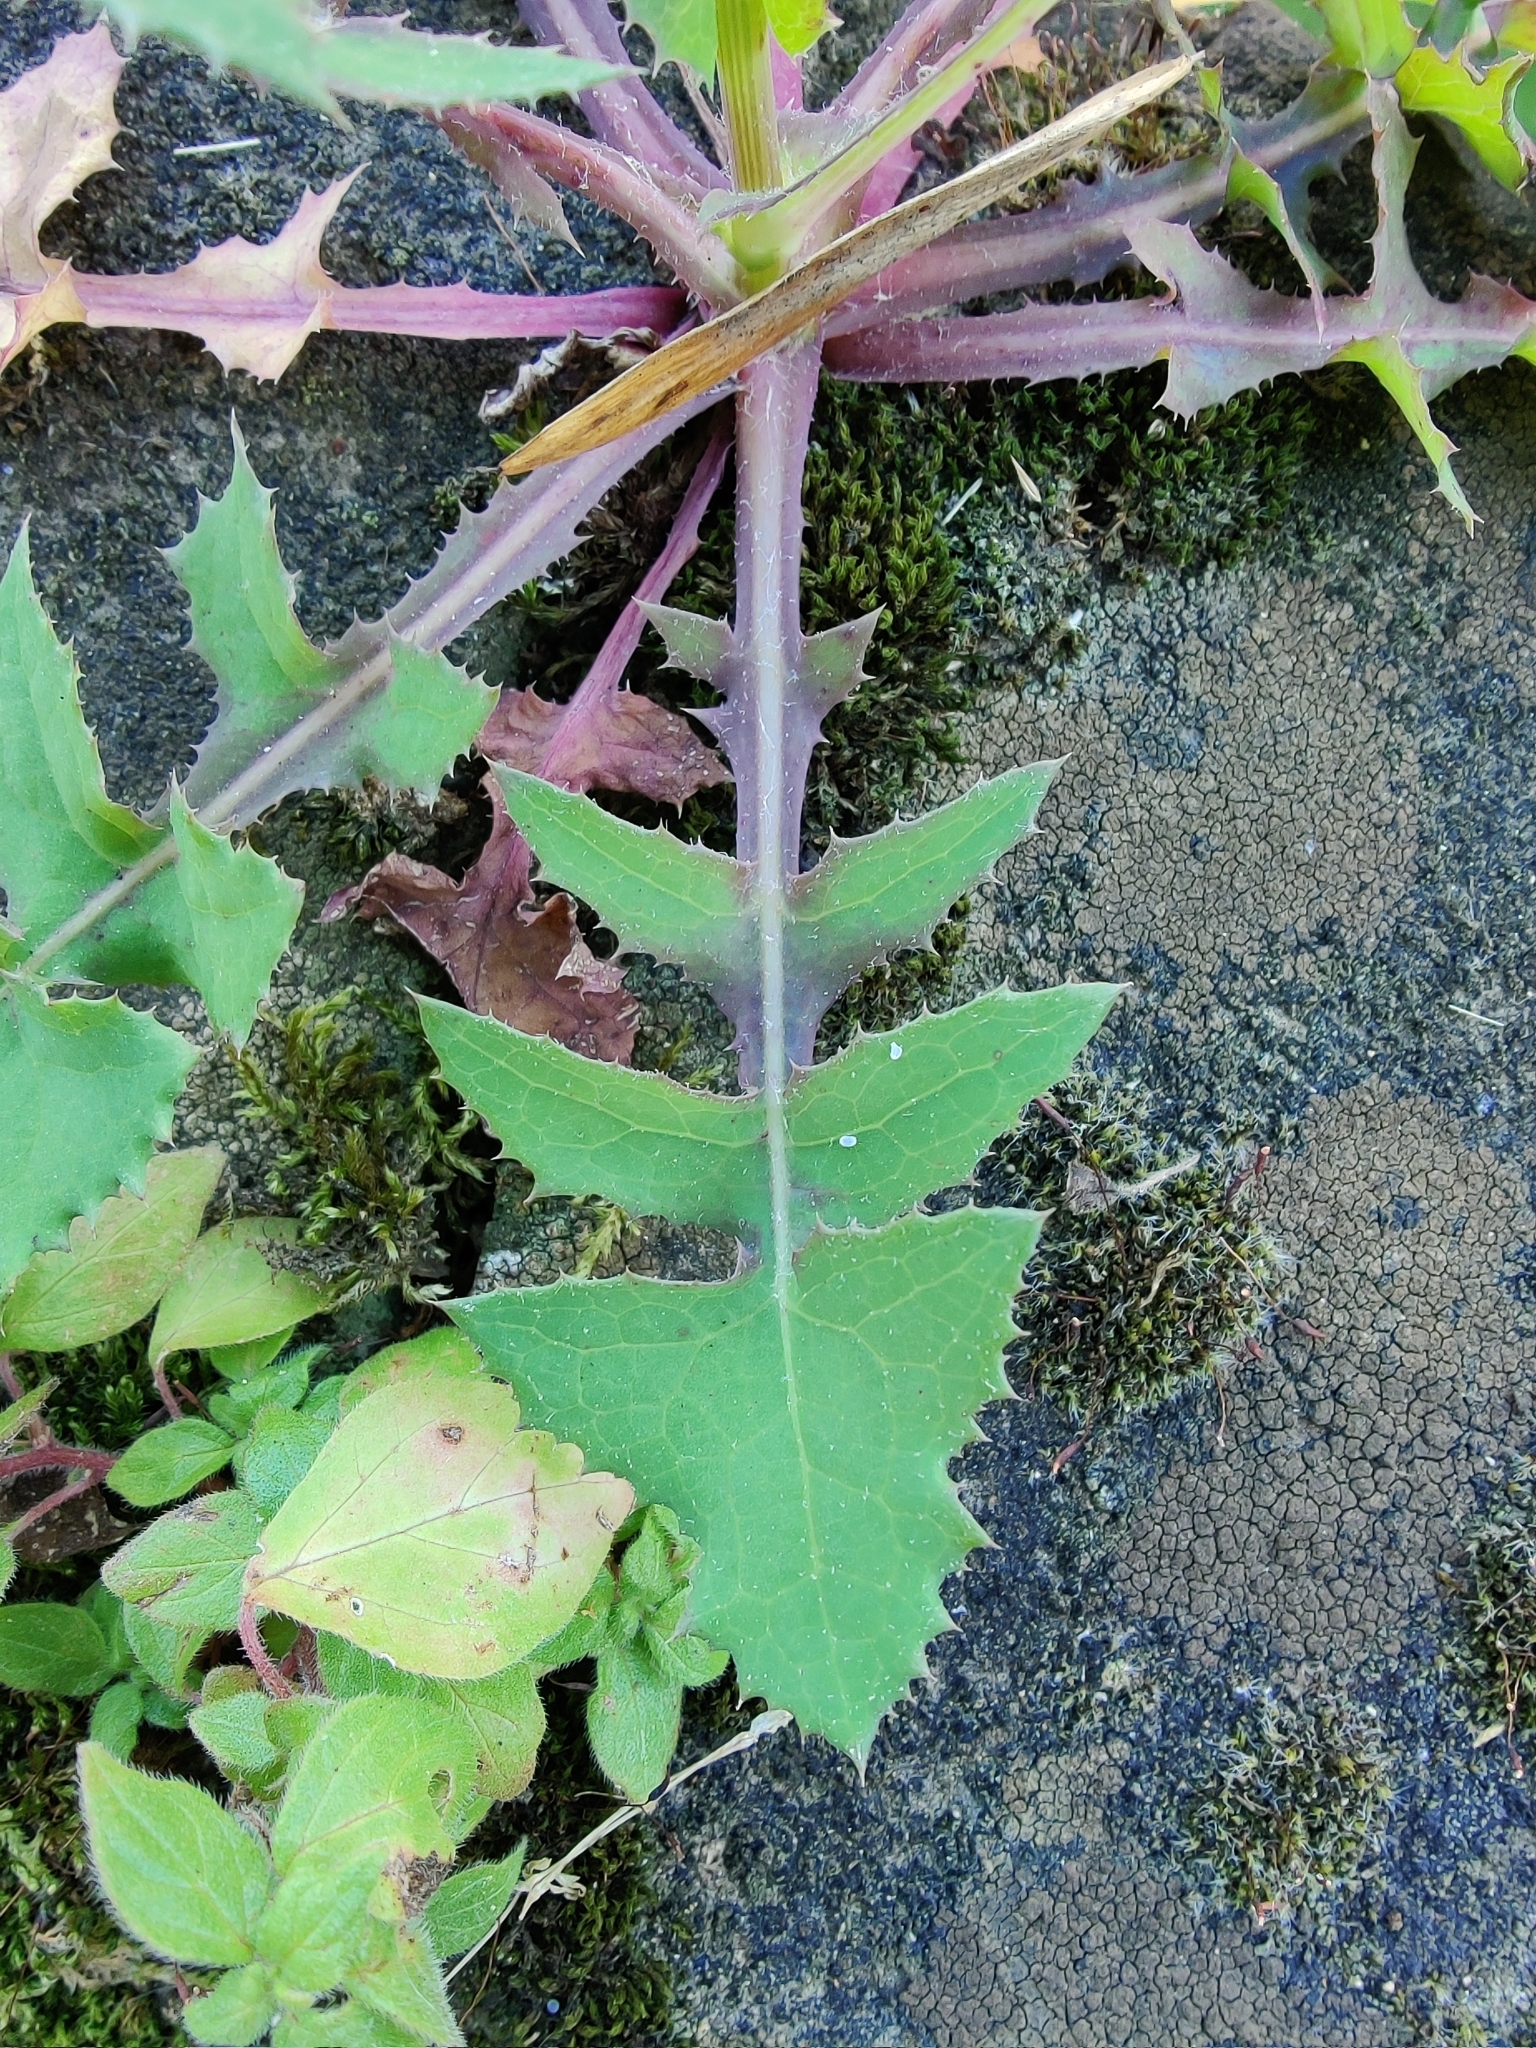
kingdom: Plantae
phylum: Tracheophyta
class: Magnoliopsida
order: Asterales
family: Asteraceae
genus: Sonchus
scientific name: Sonchus oleraceus
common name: Common sowthistle
